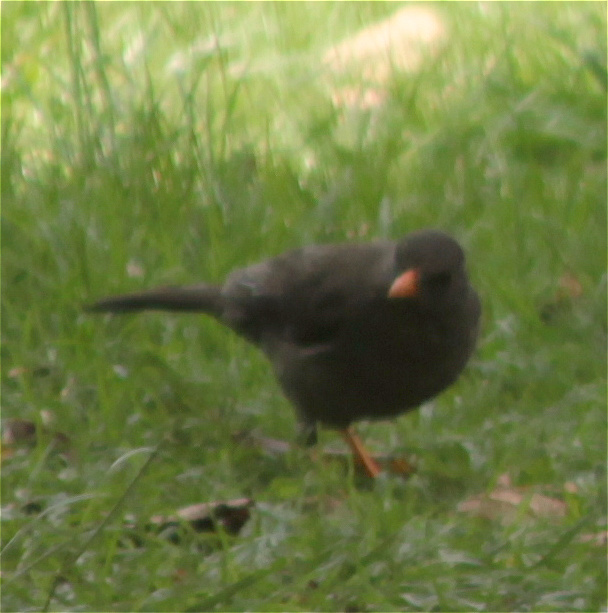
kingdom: Animalia
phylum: Chordata
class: Aves
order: Passeriformes
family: Turdidae
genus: Turdus
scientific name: Turdus fuscater
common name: Great thrush
